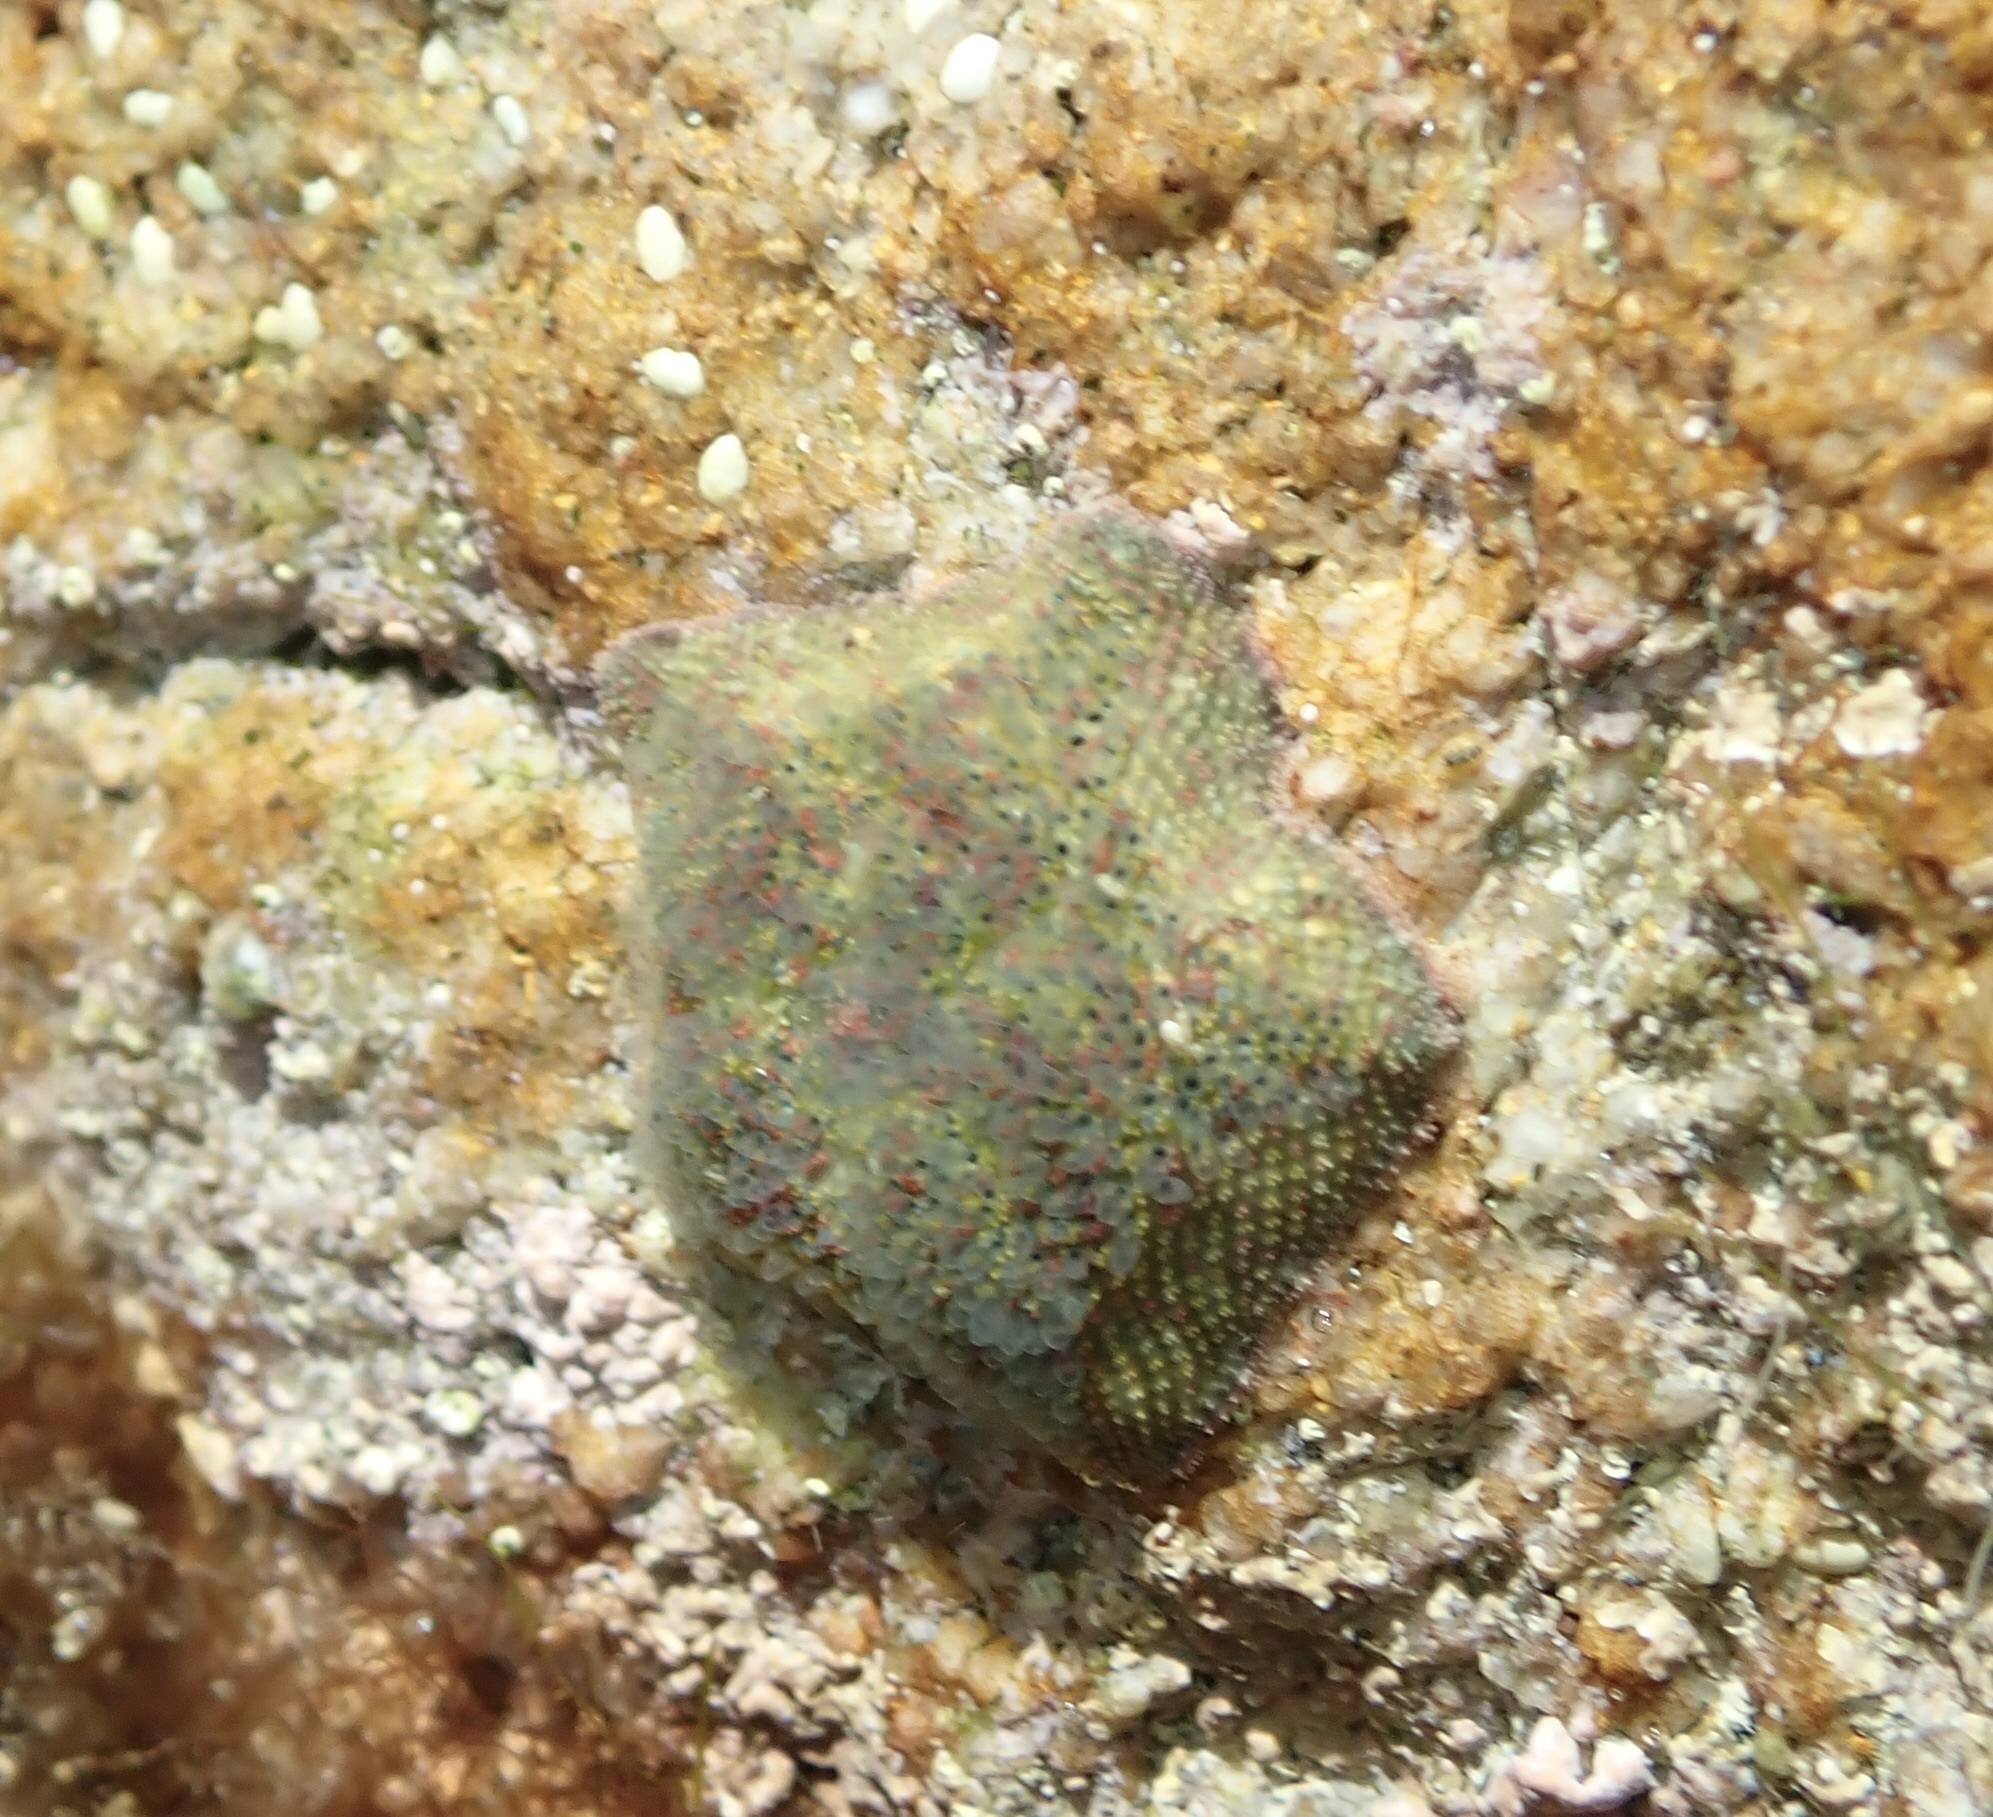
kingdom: Animalia
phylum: Echinodermata
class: Asteroidea
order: Valvatida
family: Asterinidae
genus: Parvulastra
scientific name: Parvulastra exigua
